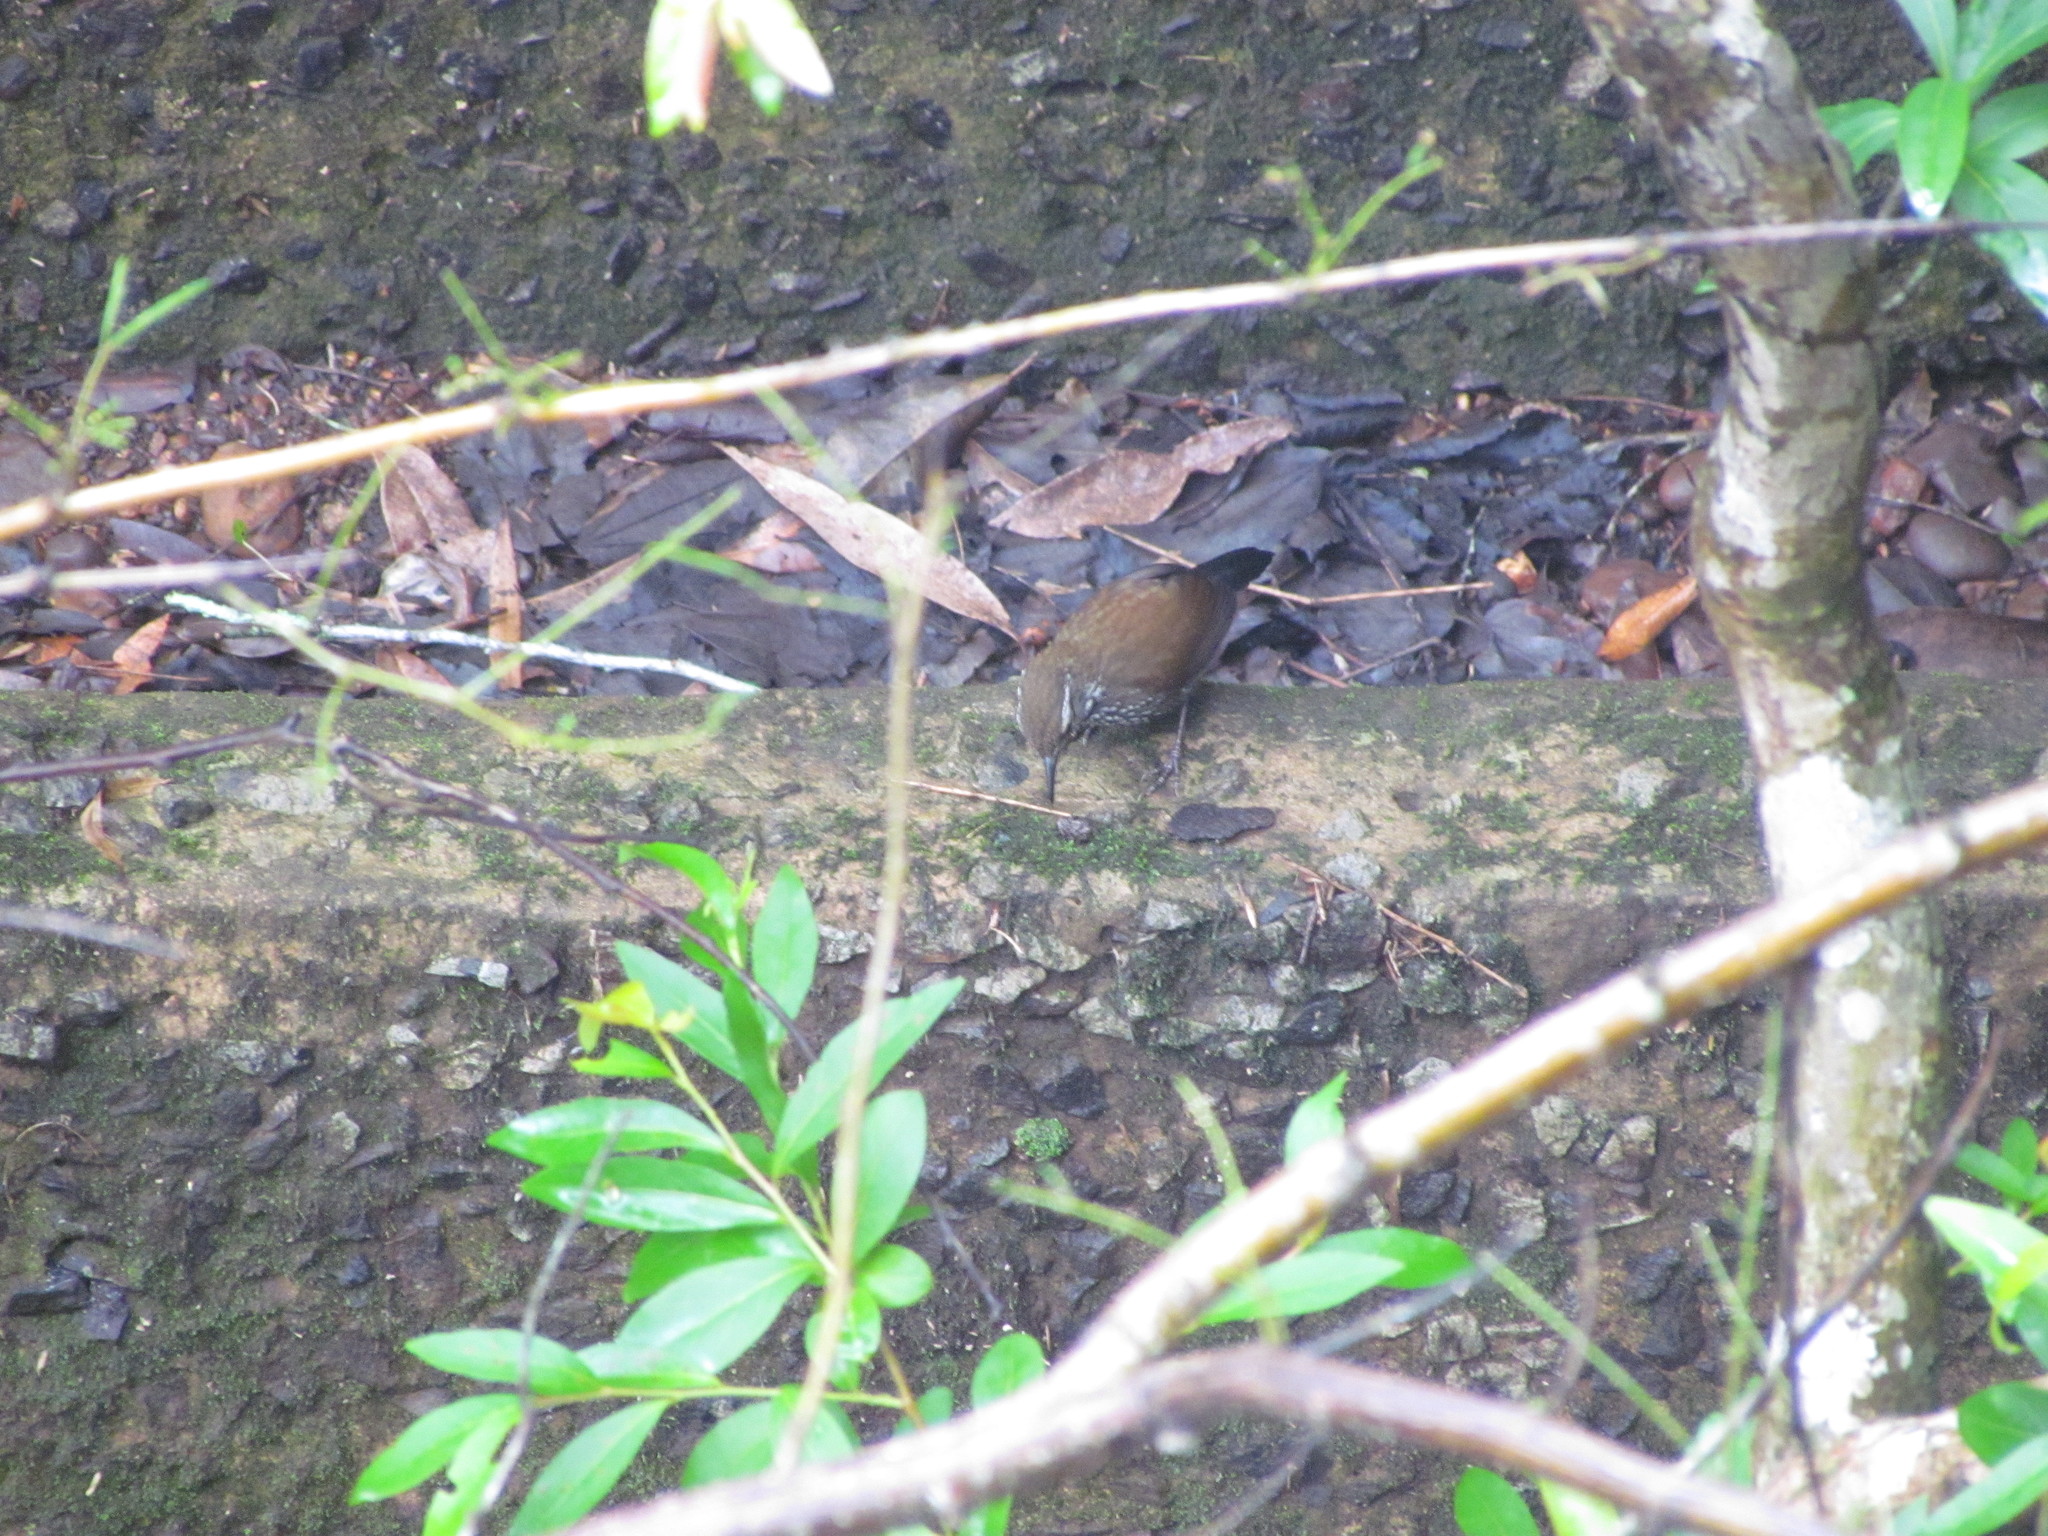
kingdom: Animalia
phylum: Chordata
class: Aves
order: Passeriformes
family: Furnariidae
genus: Lochmias
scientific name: Lochmias nematura
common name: Sharp-tailed streamcreeper
